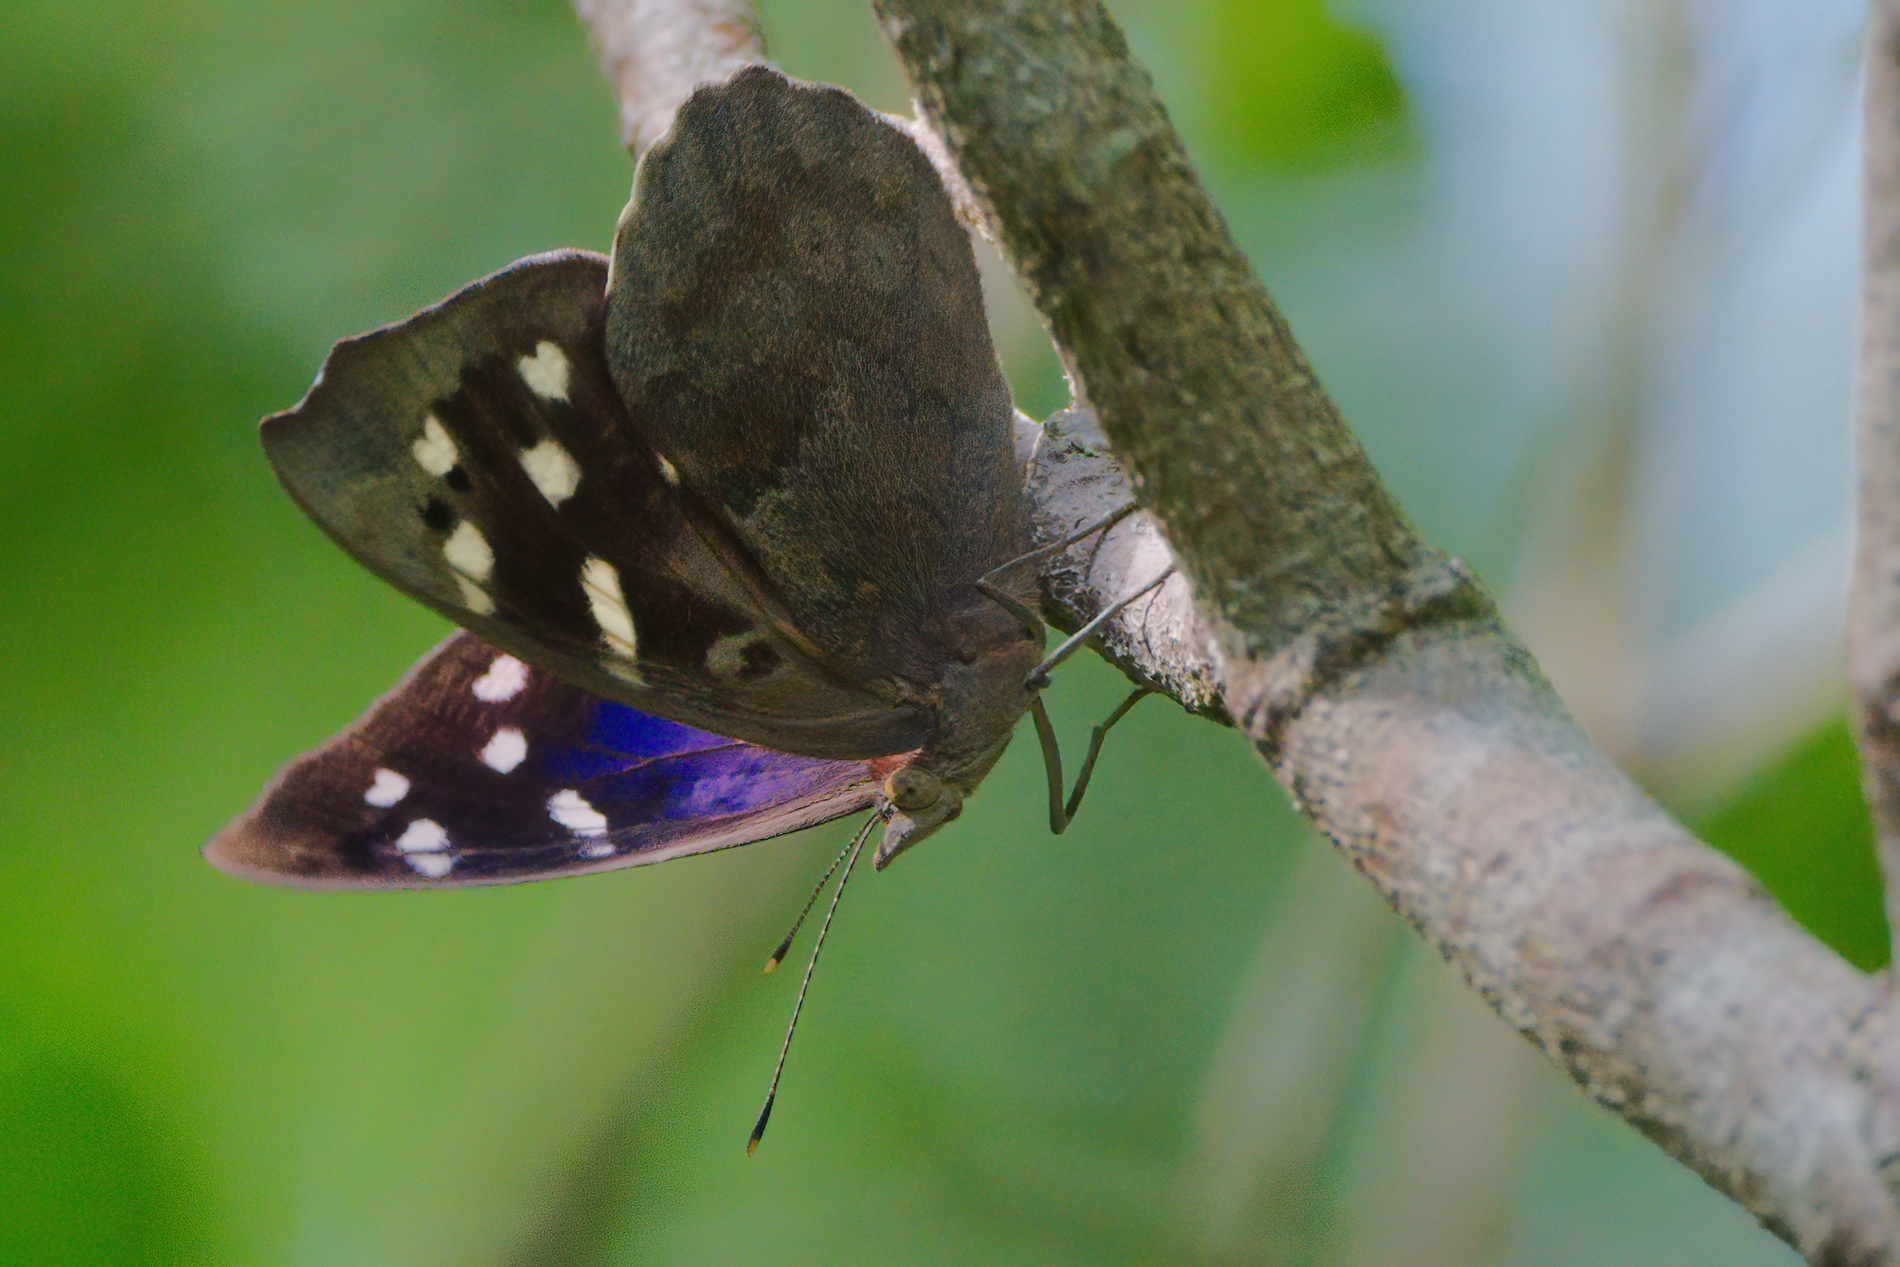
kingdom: Animalia
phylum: Arthropoda
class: Insecta
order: Lepidoptera
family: Nymphalidae
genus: Eunica
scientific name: Eunica tatila
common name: Florida purplewing
